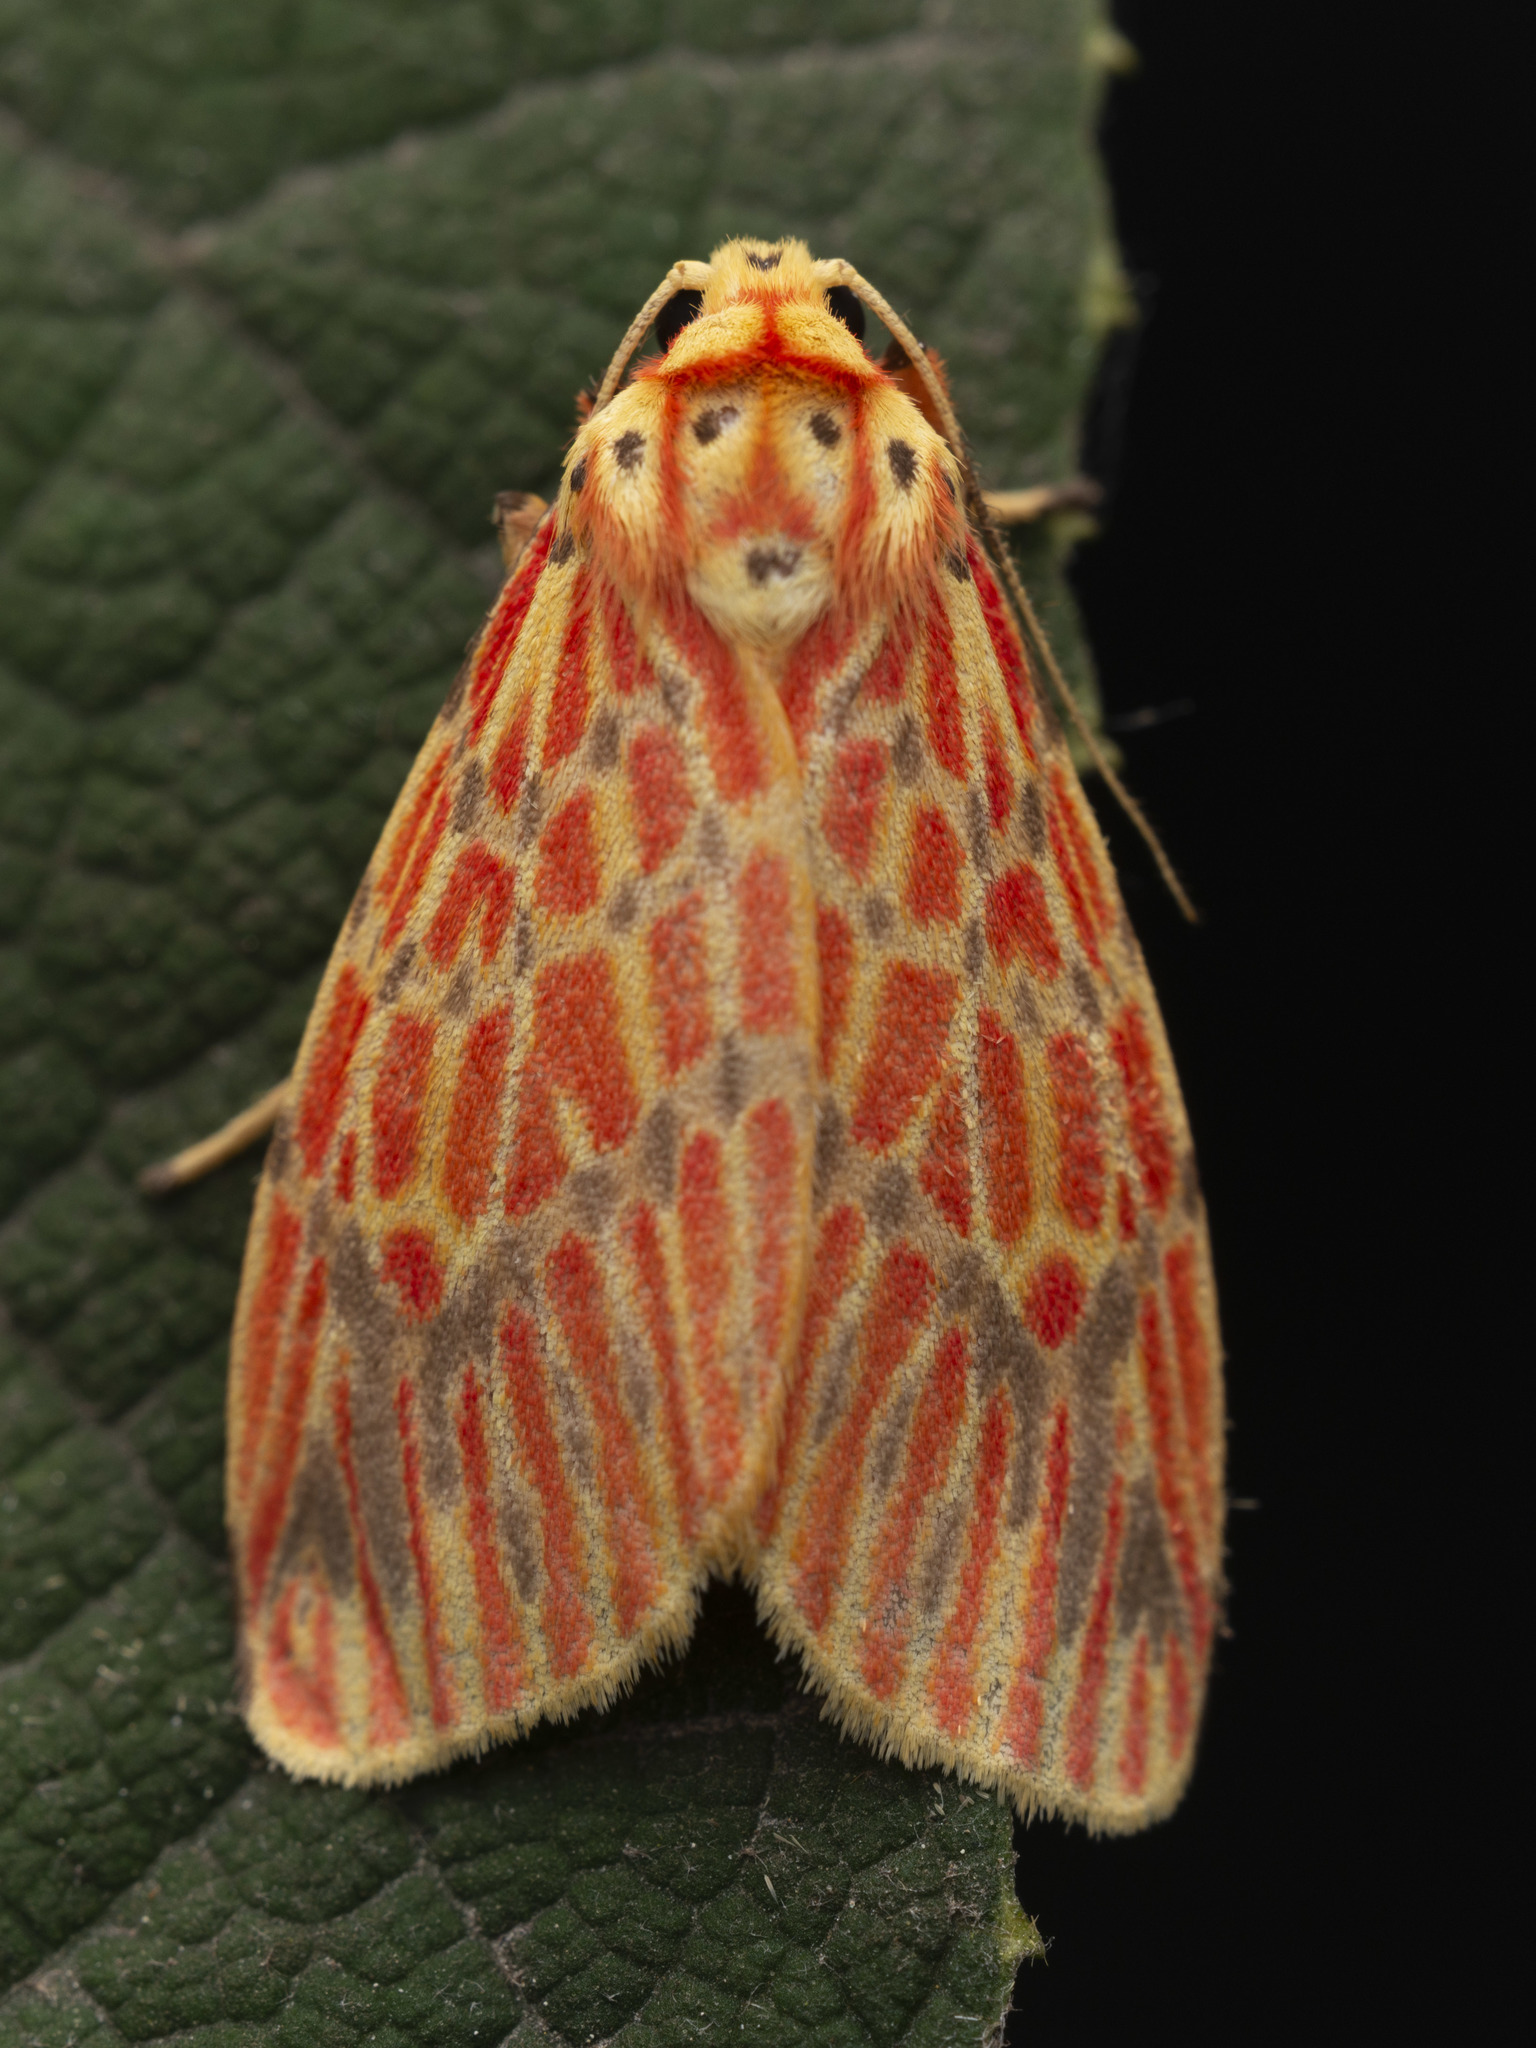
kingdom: Animalia
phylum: Arthropoda
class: Insecta
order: Lepidoptera
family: Erebidae
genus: Barsine
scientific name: Barsine striata
